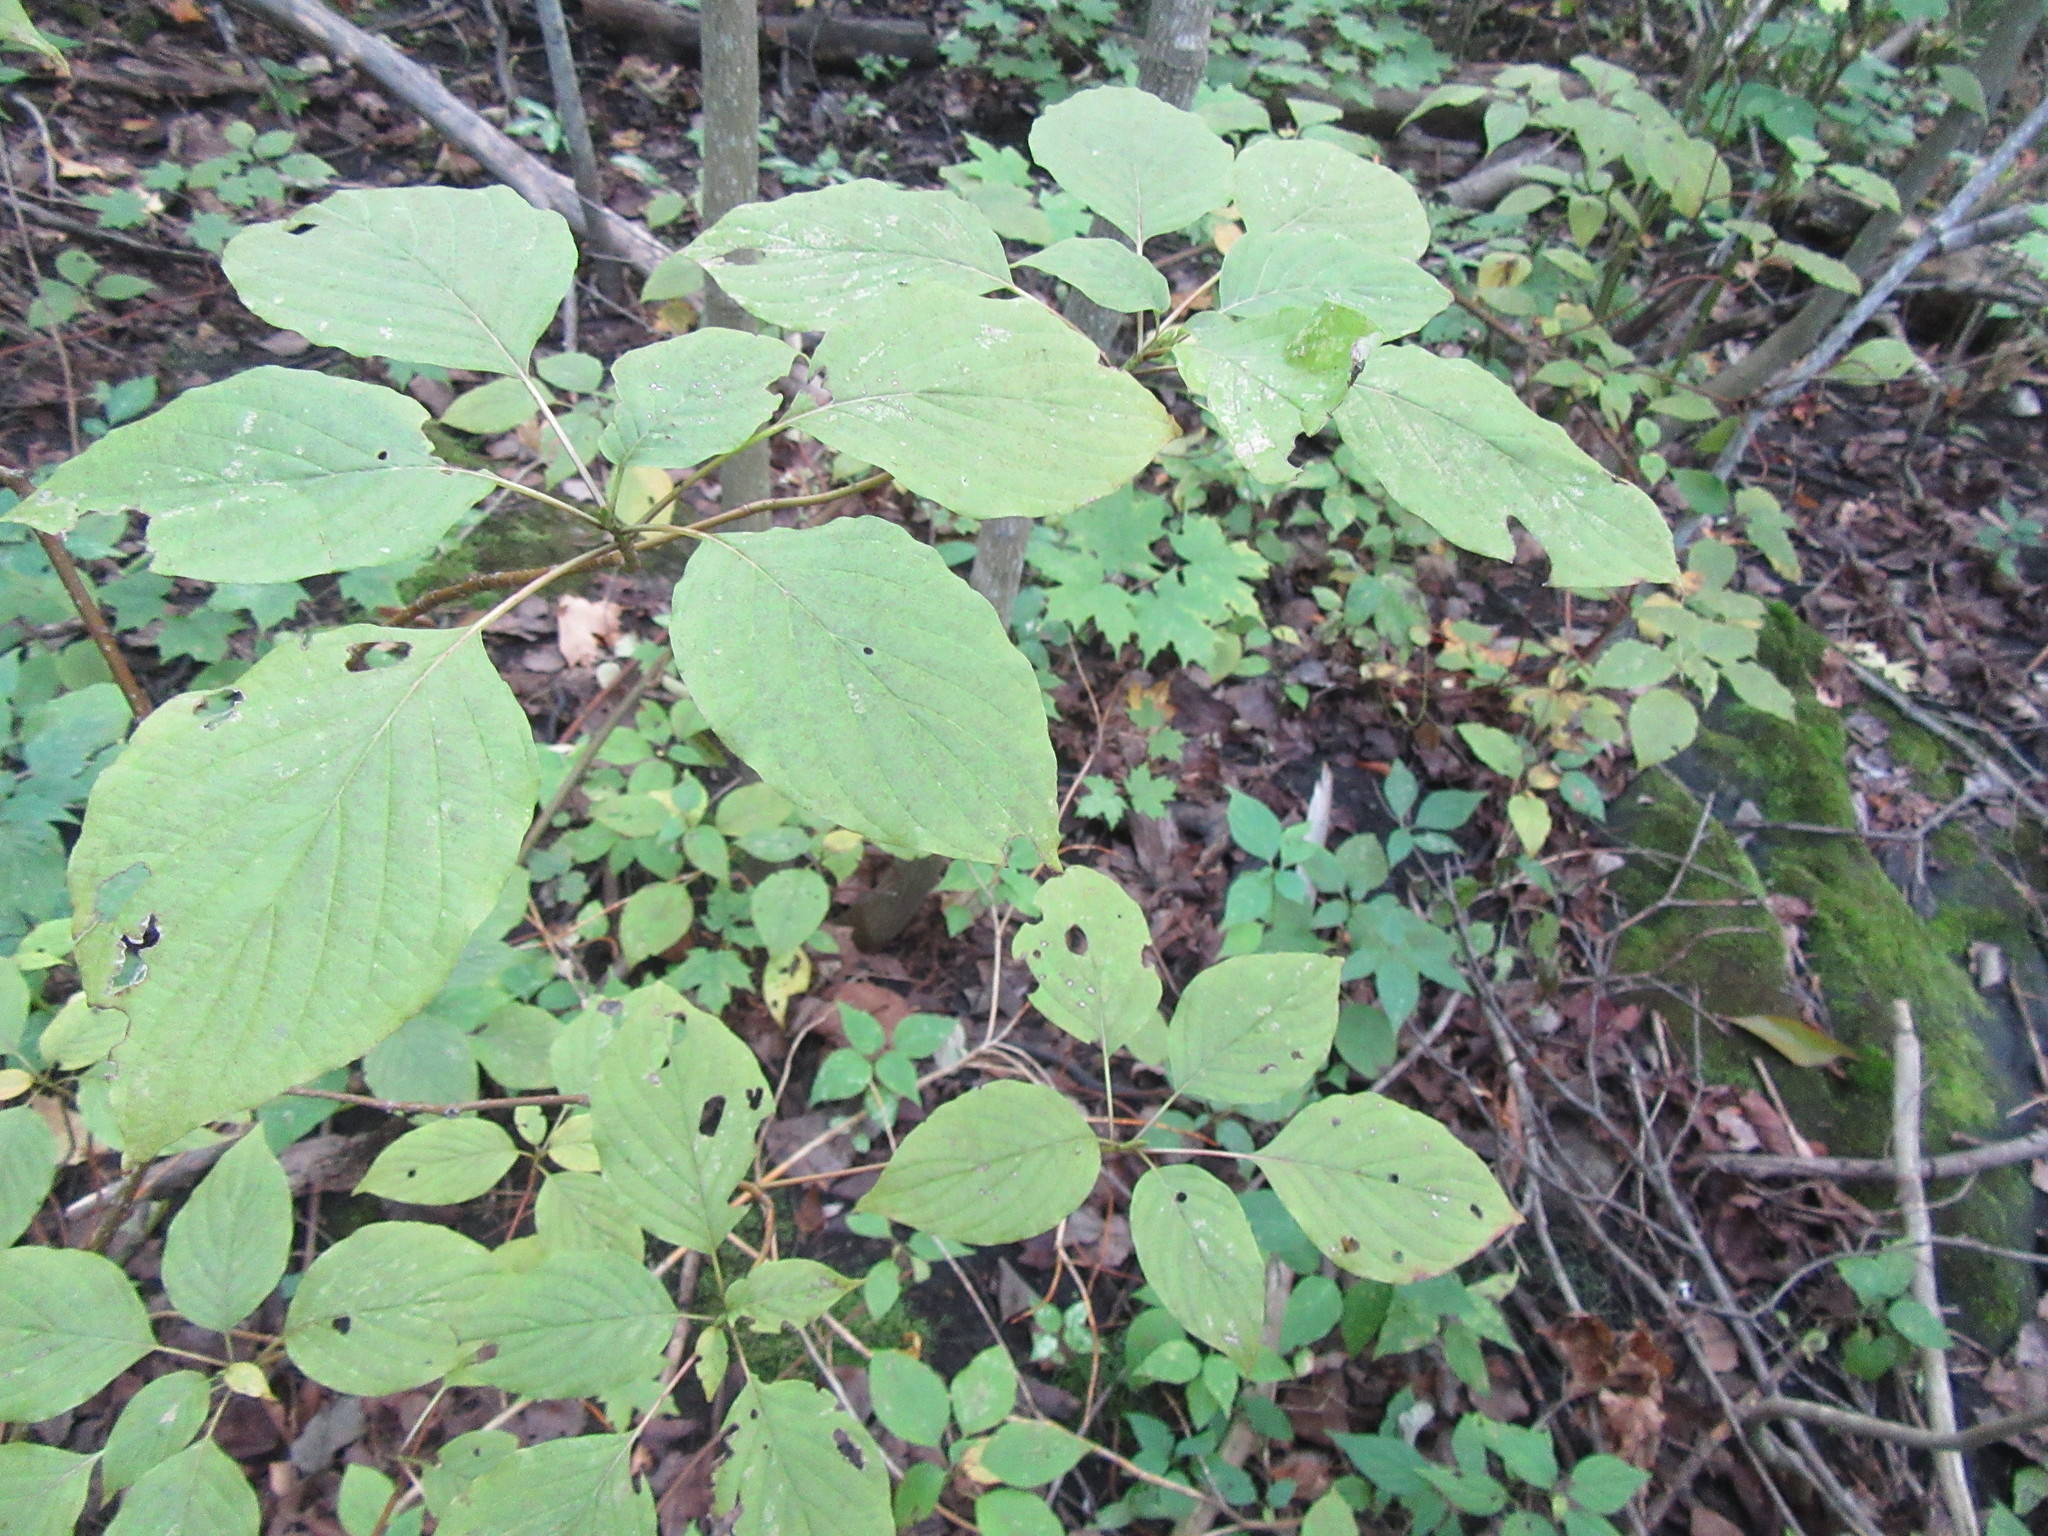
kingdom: Plantae
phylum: Tracheophyta
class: Magnoliopsida
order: Cornales
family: Cornaceae
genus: Cornus
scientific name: Cornus alternifolia
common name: Pagoda dogwood
